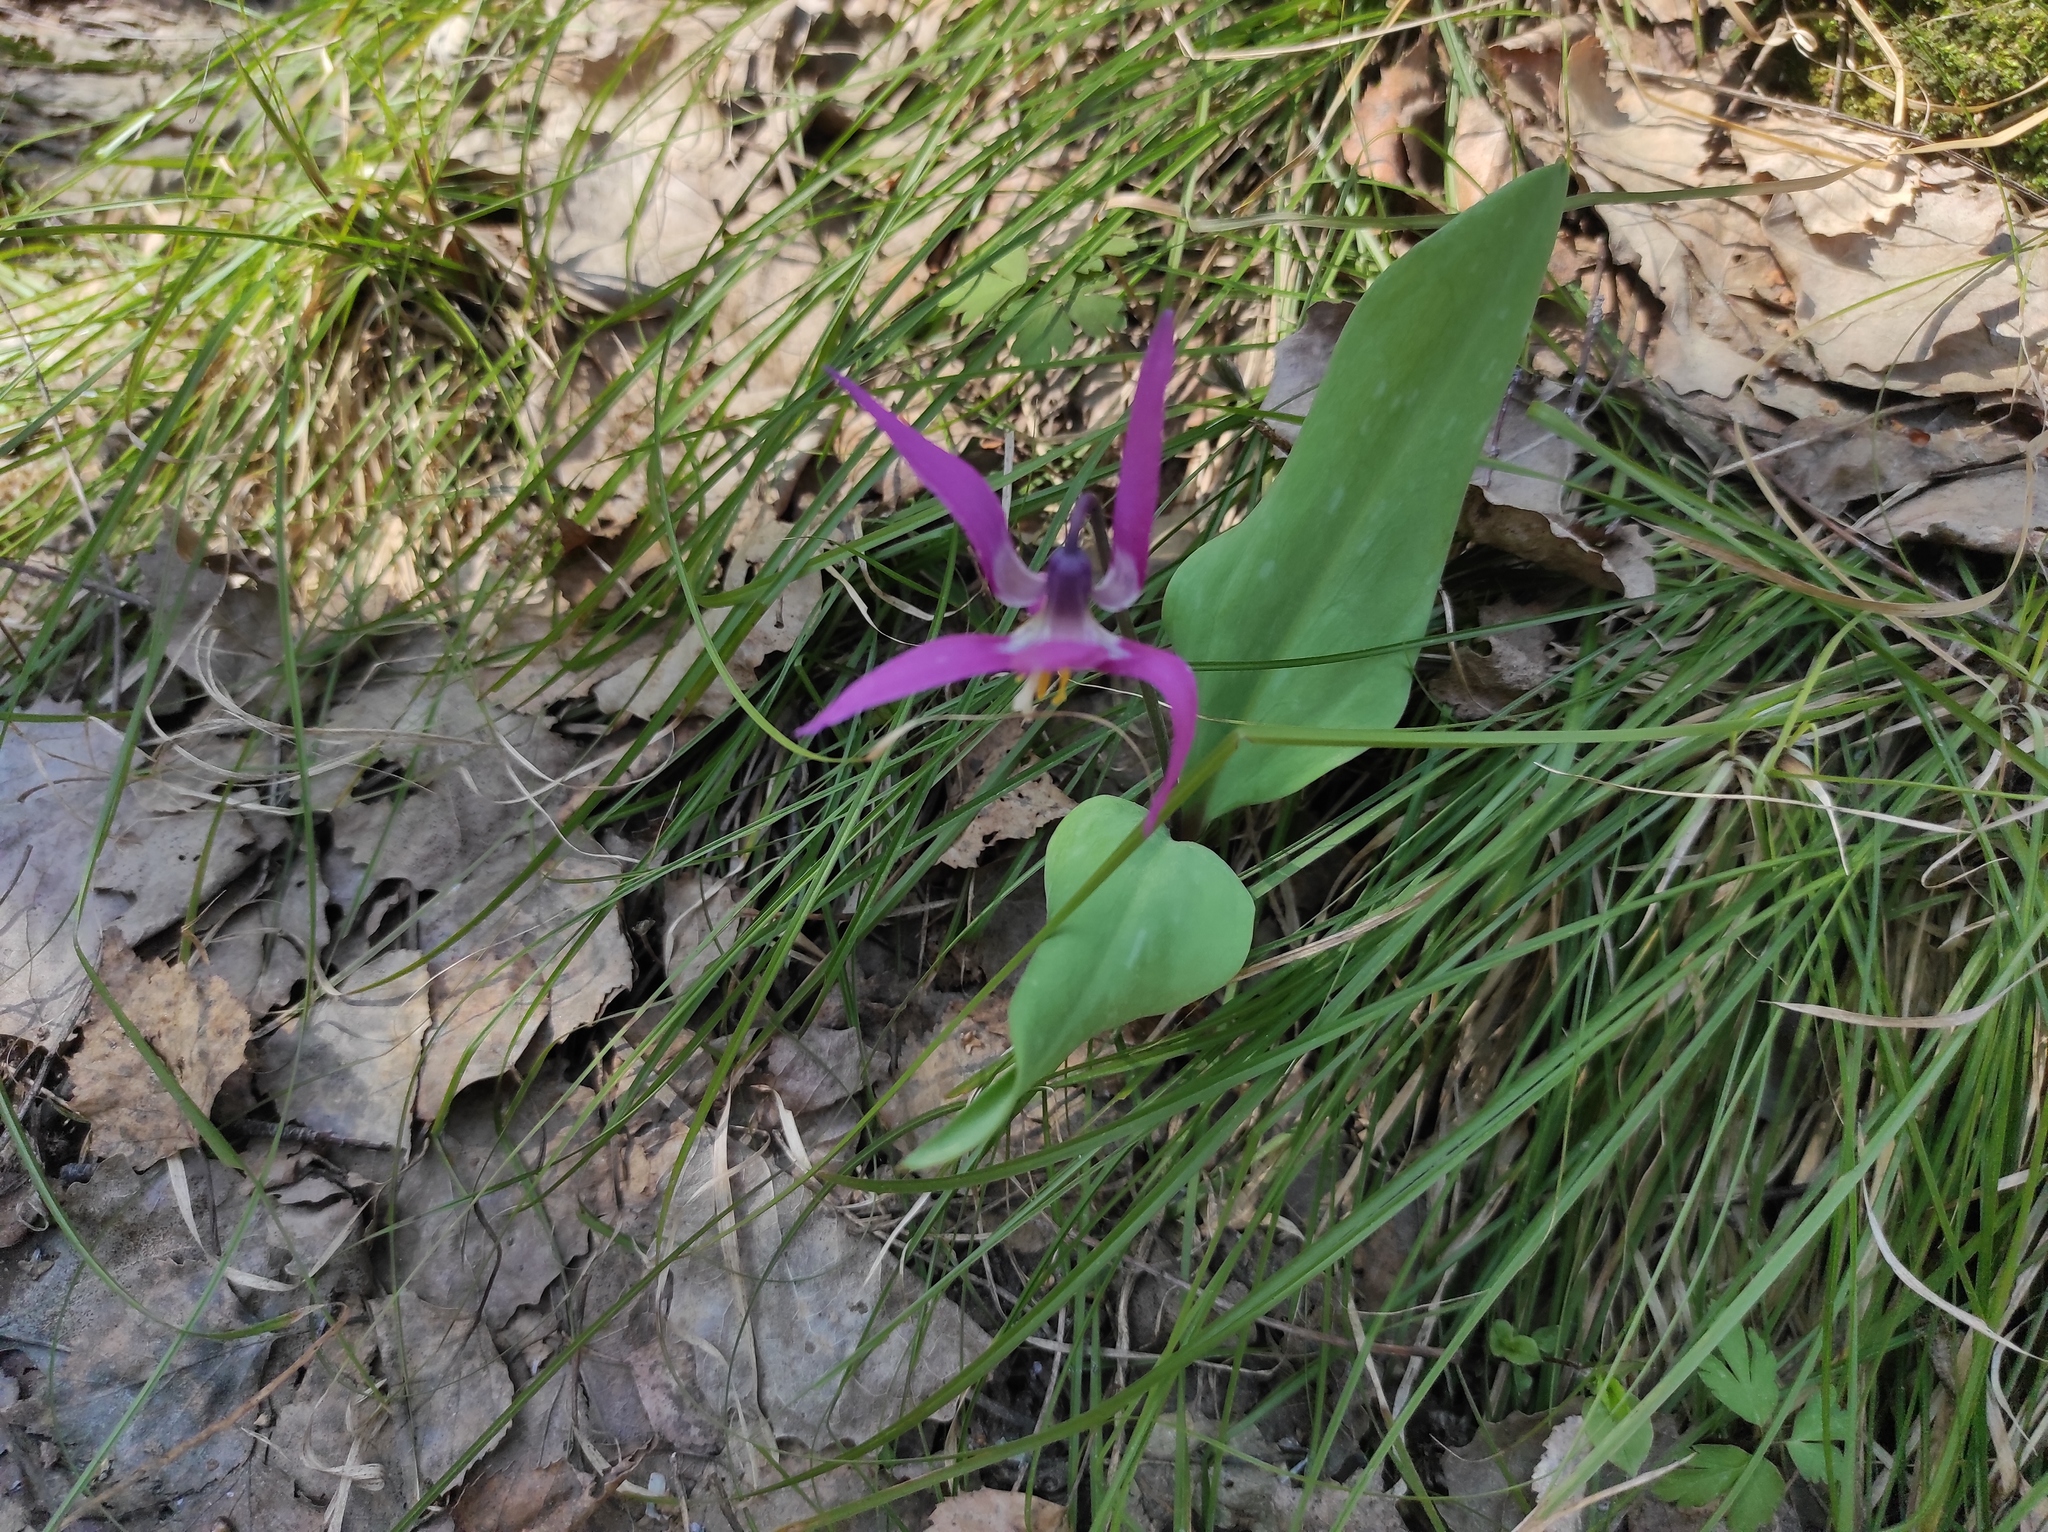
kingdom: Plantae
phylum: Tracheophyta
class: Liliopsida
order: Liliales
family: Liliaceae
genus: Erythronium
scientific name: Erythronium sibiricum
